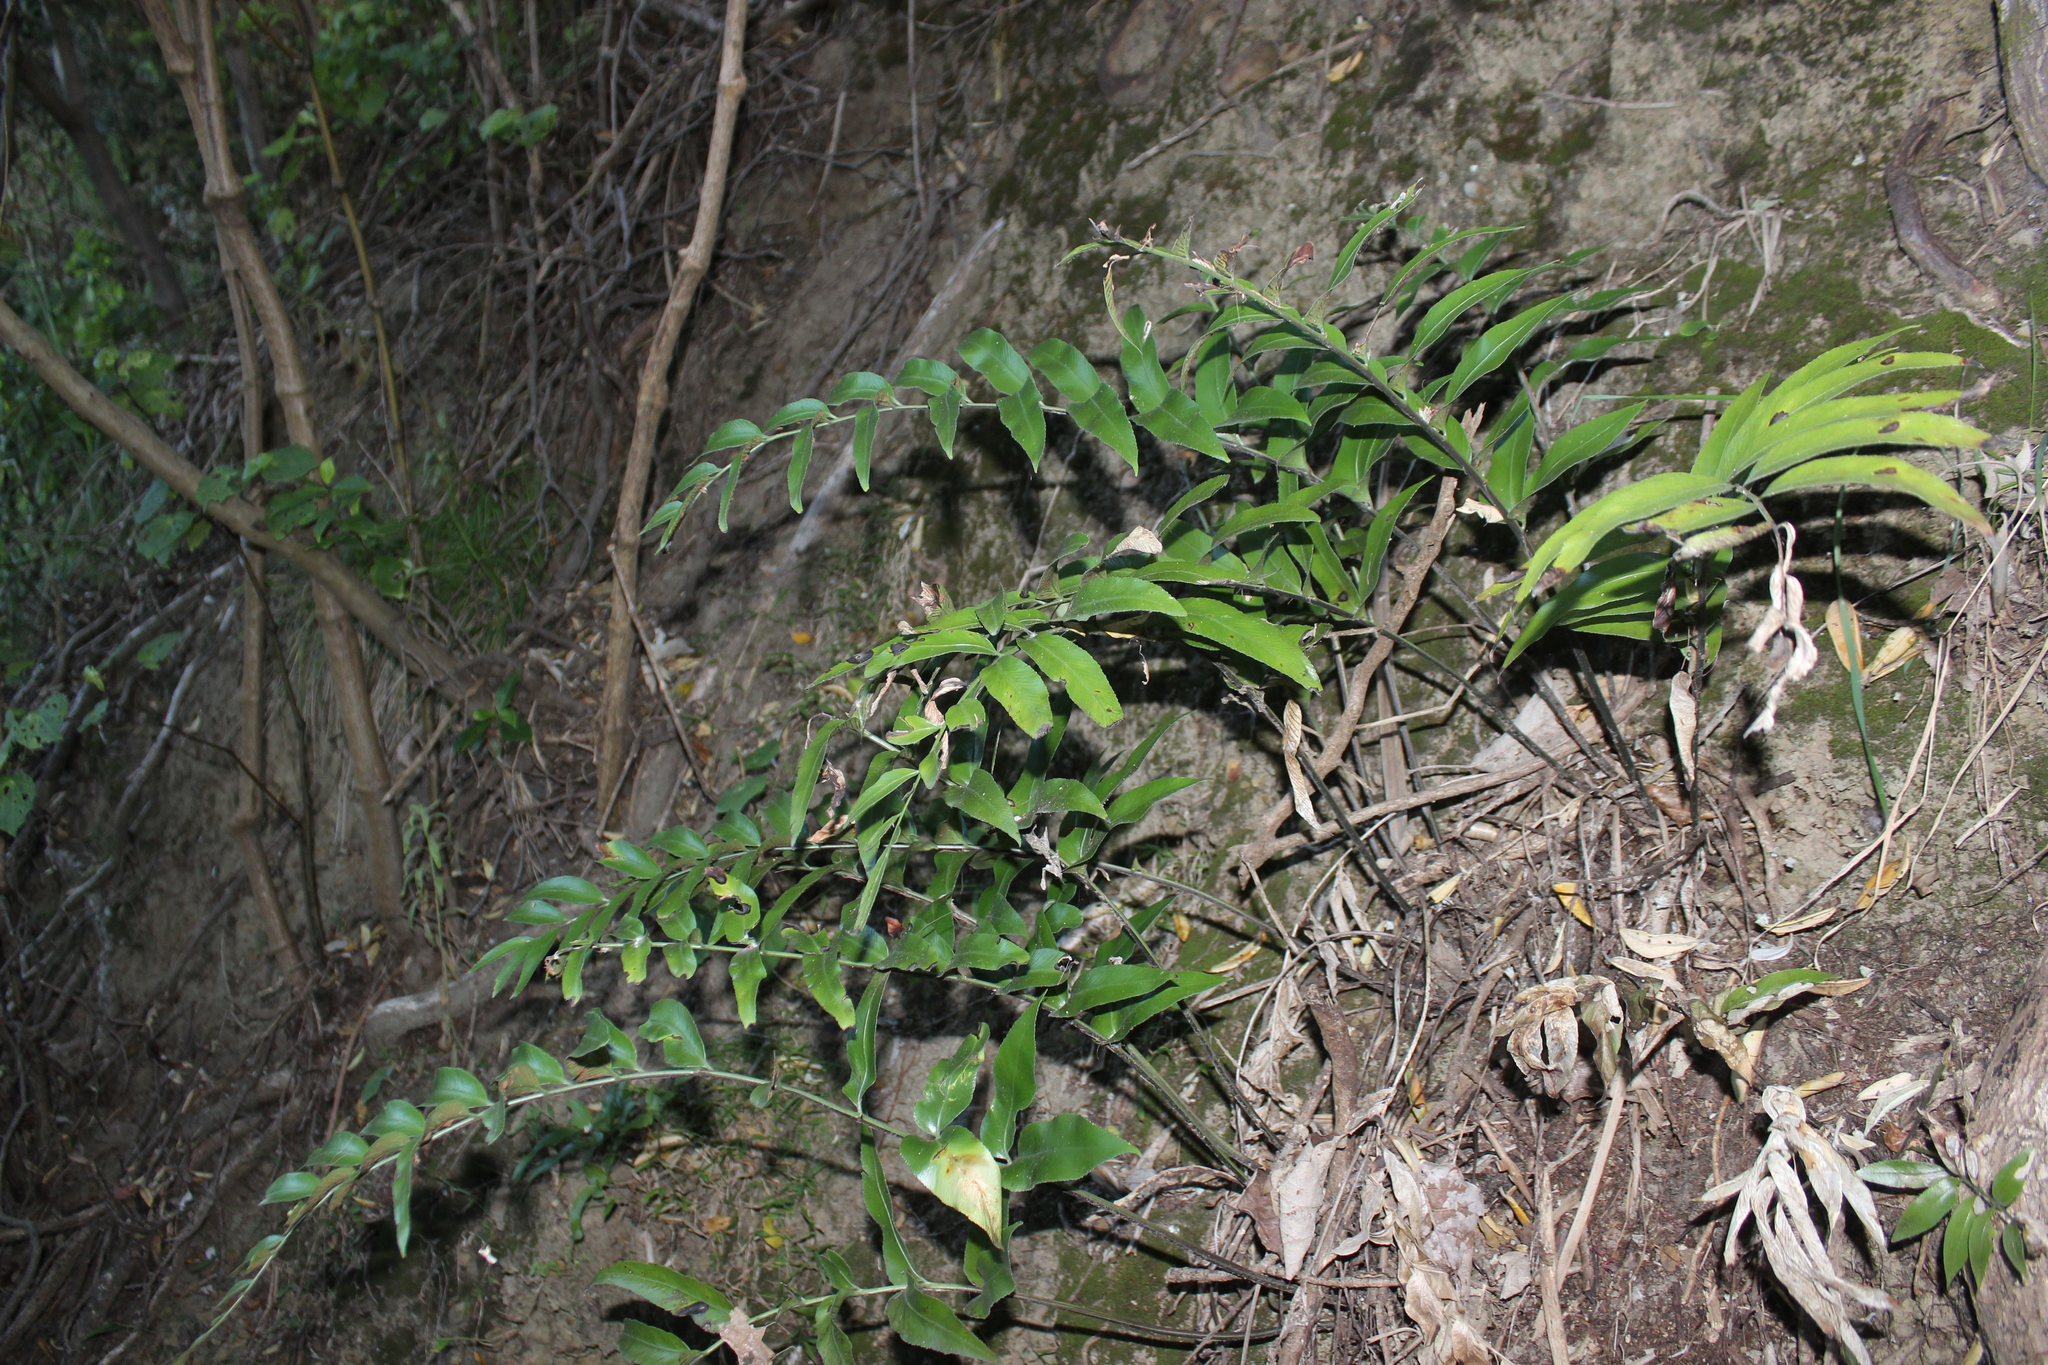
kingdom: Plantae
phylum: Tracheophyta
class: Polypodiopsida
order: Polypodiales
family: Aspleniaceae
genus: Asplenium
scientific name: Asplenium oblongifolium
